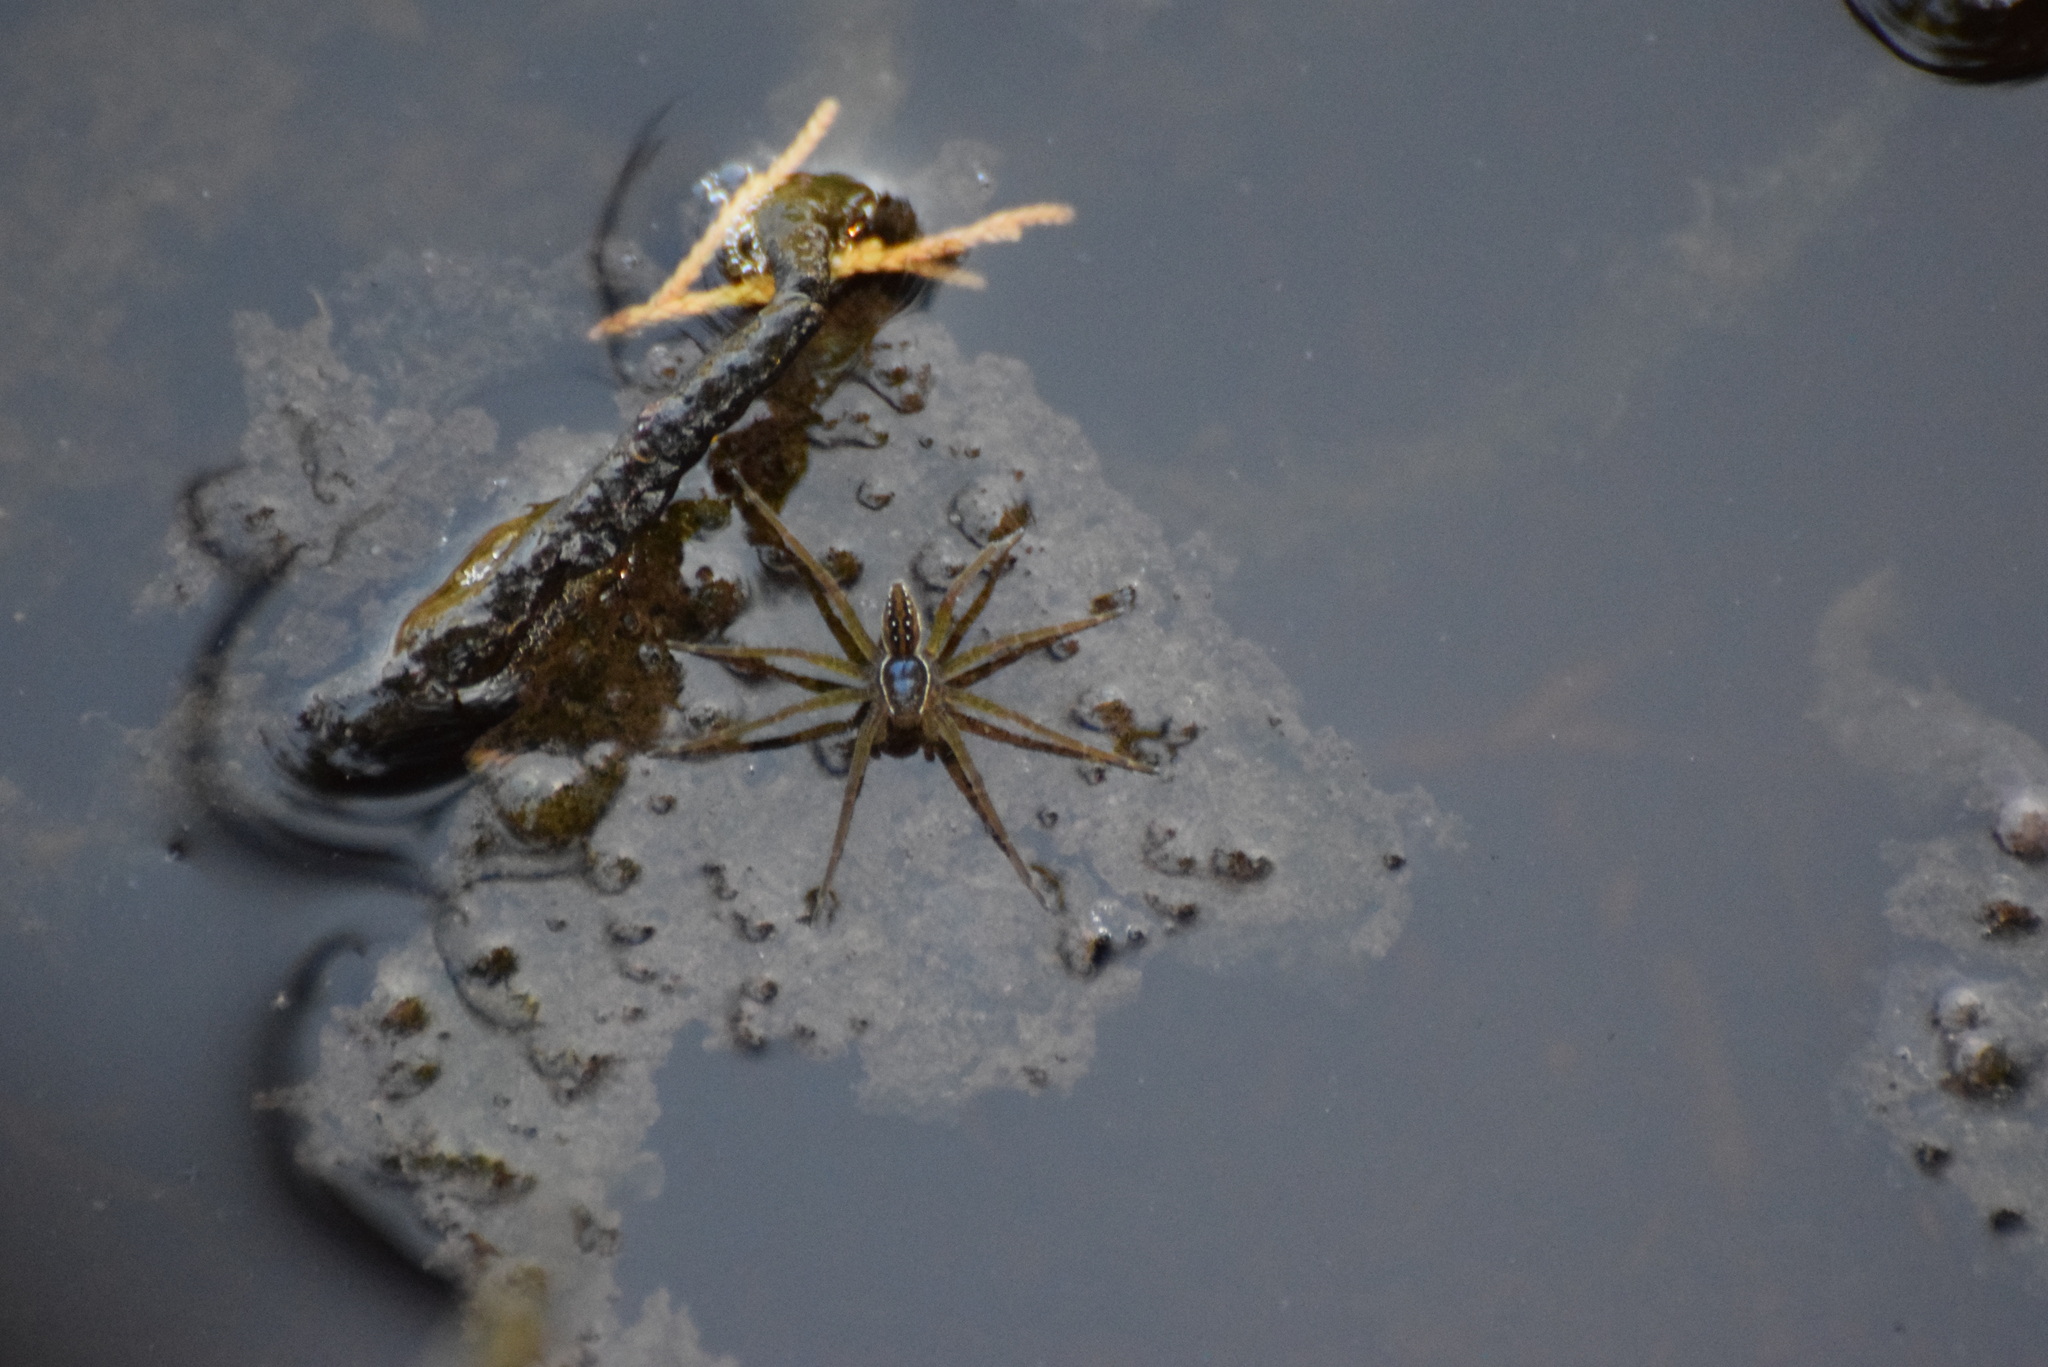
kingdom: Animalia
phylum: Arthropoda
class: Arachnida
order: Araneae
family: Pisauridae
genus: Dolomedes
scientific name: Dolomedes triton
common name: Six-spotted fishing spider
